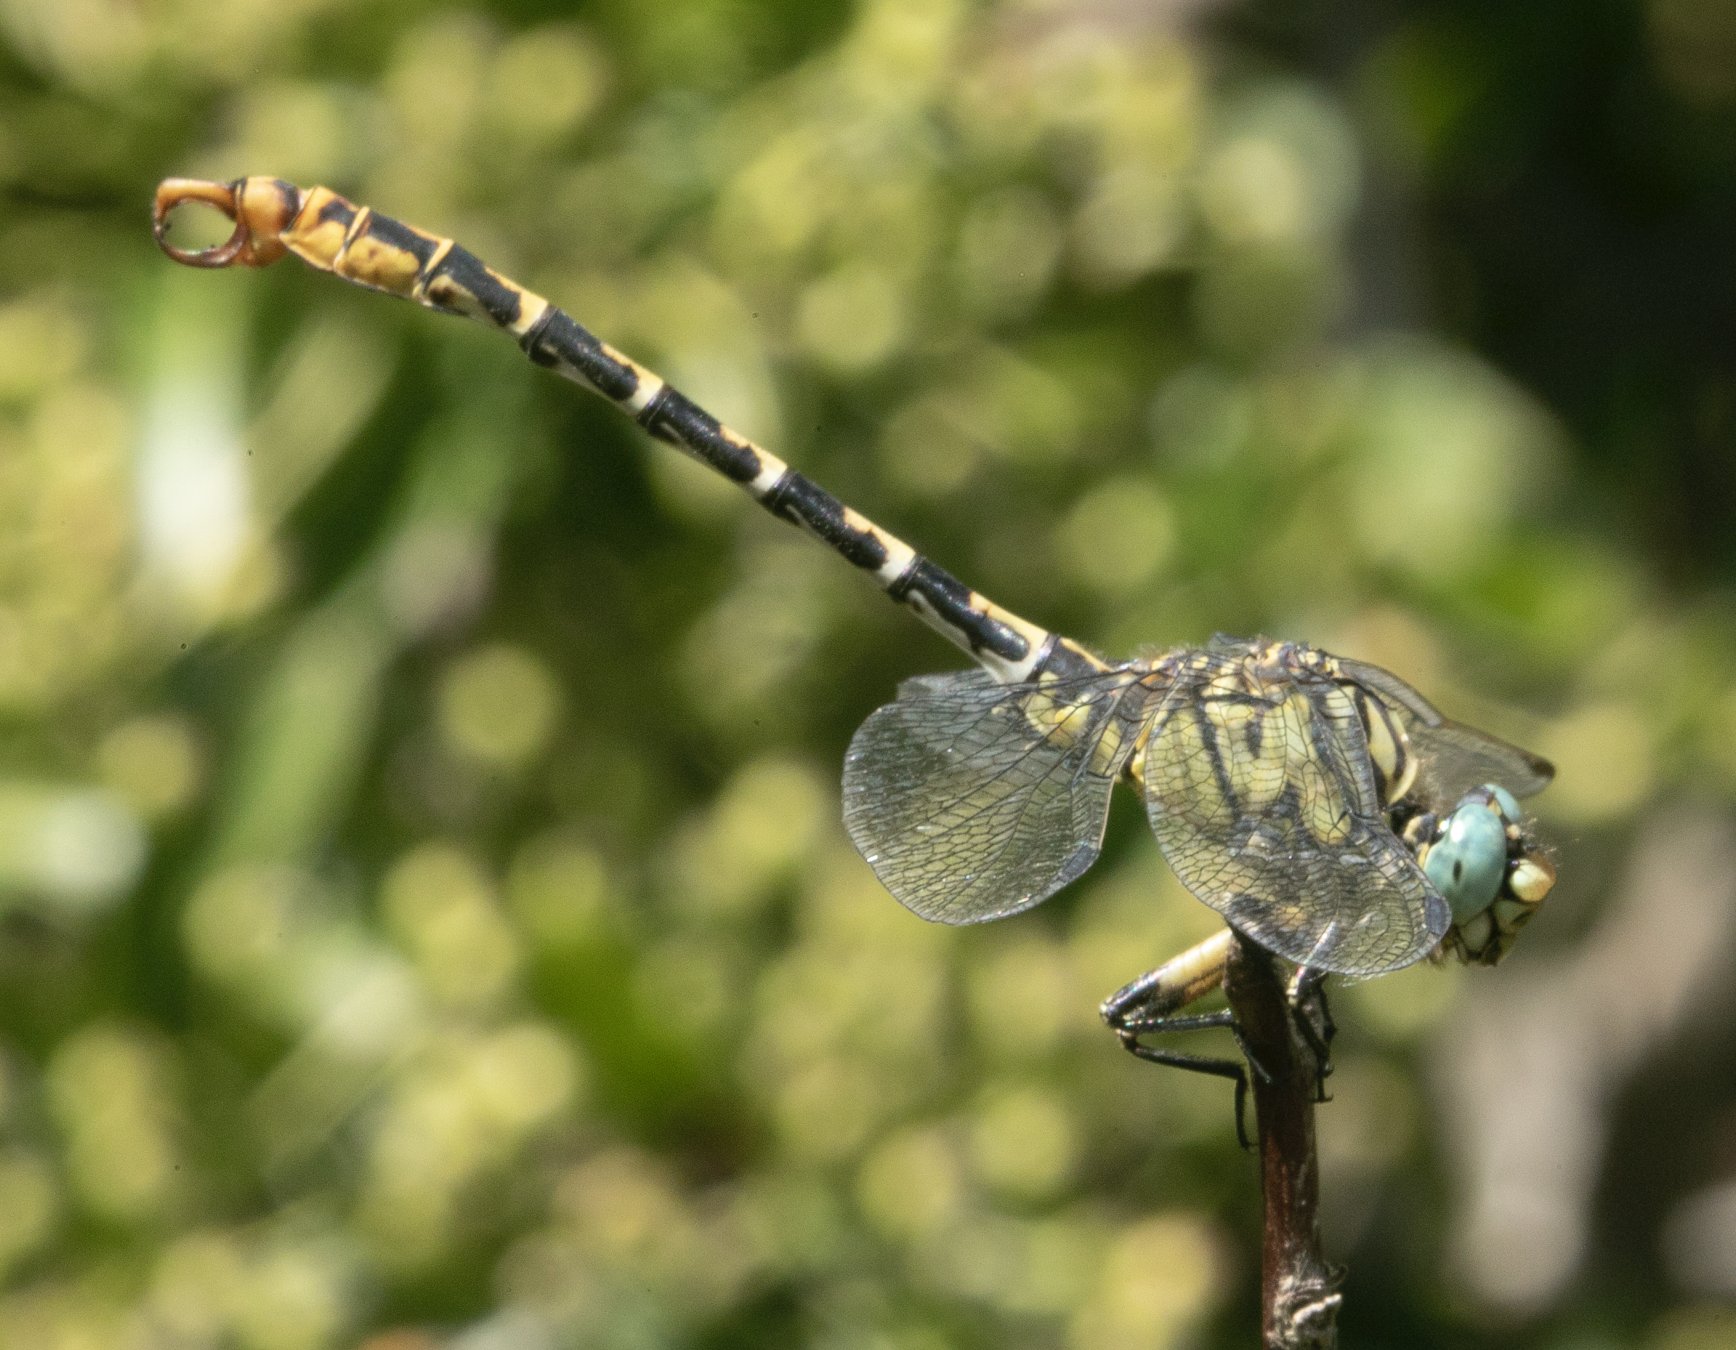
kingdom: Animalia
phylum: Arthropoda
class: Insecta
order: Odonata
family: Gomphidae
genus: Onychogomphus
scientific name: Onychogomphus forcipatus
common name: Small pincertail
